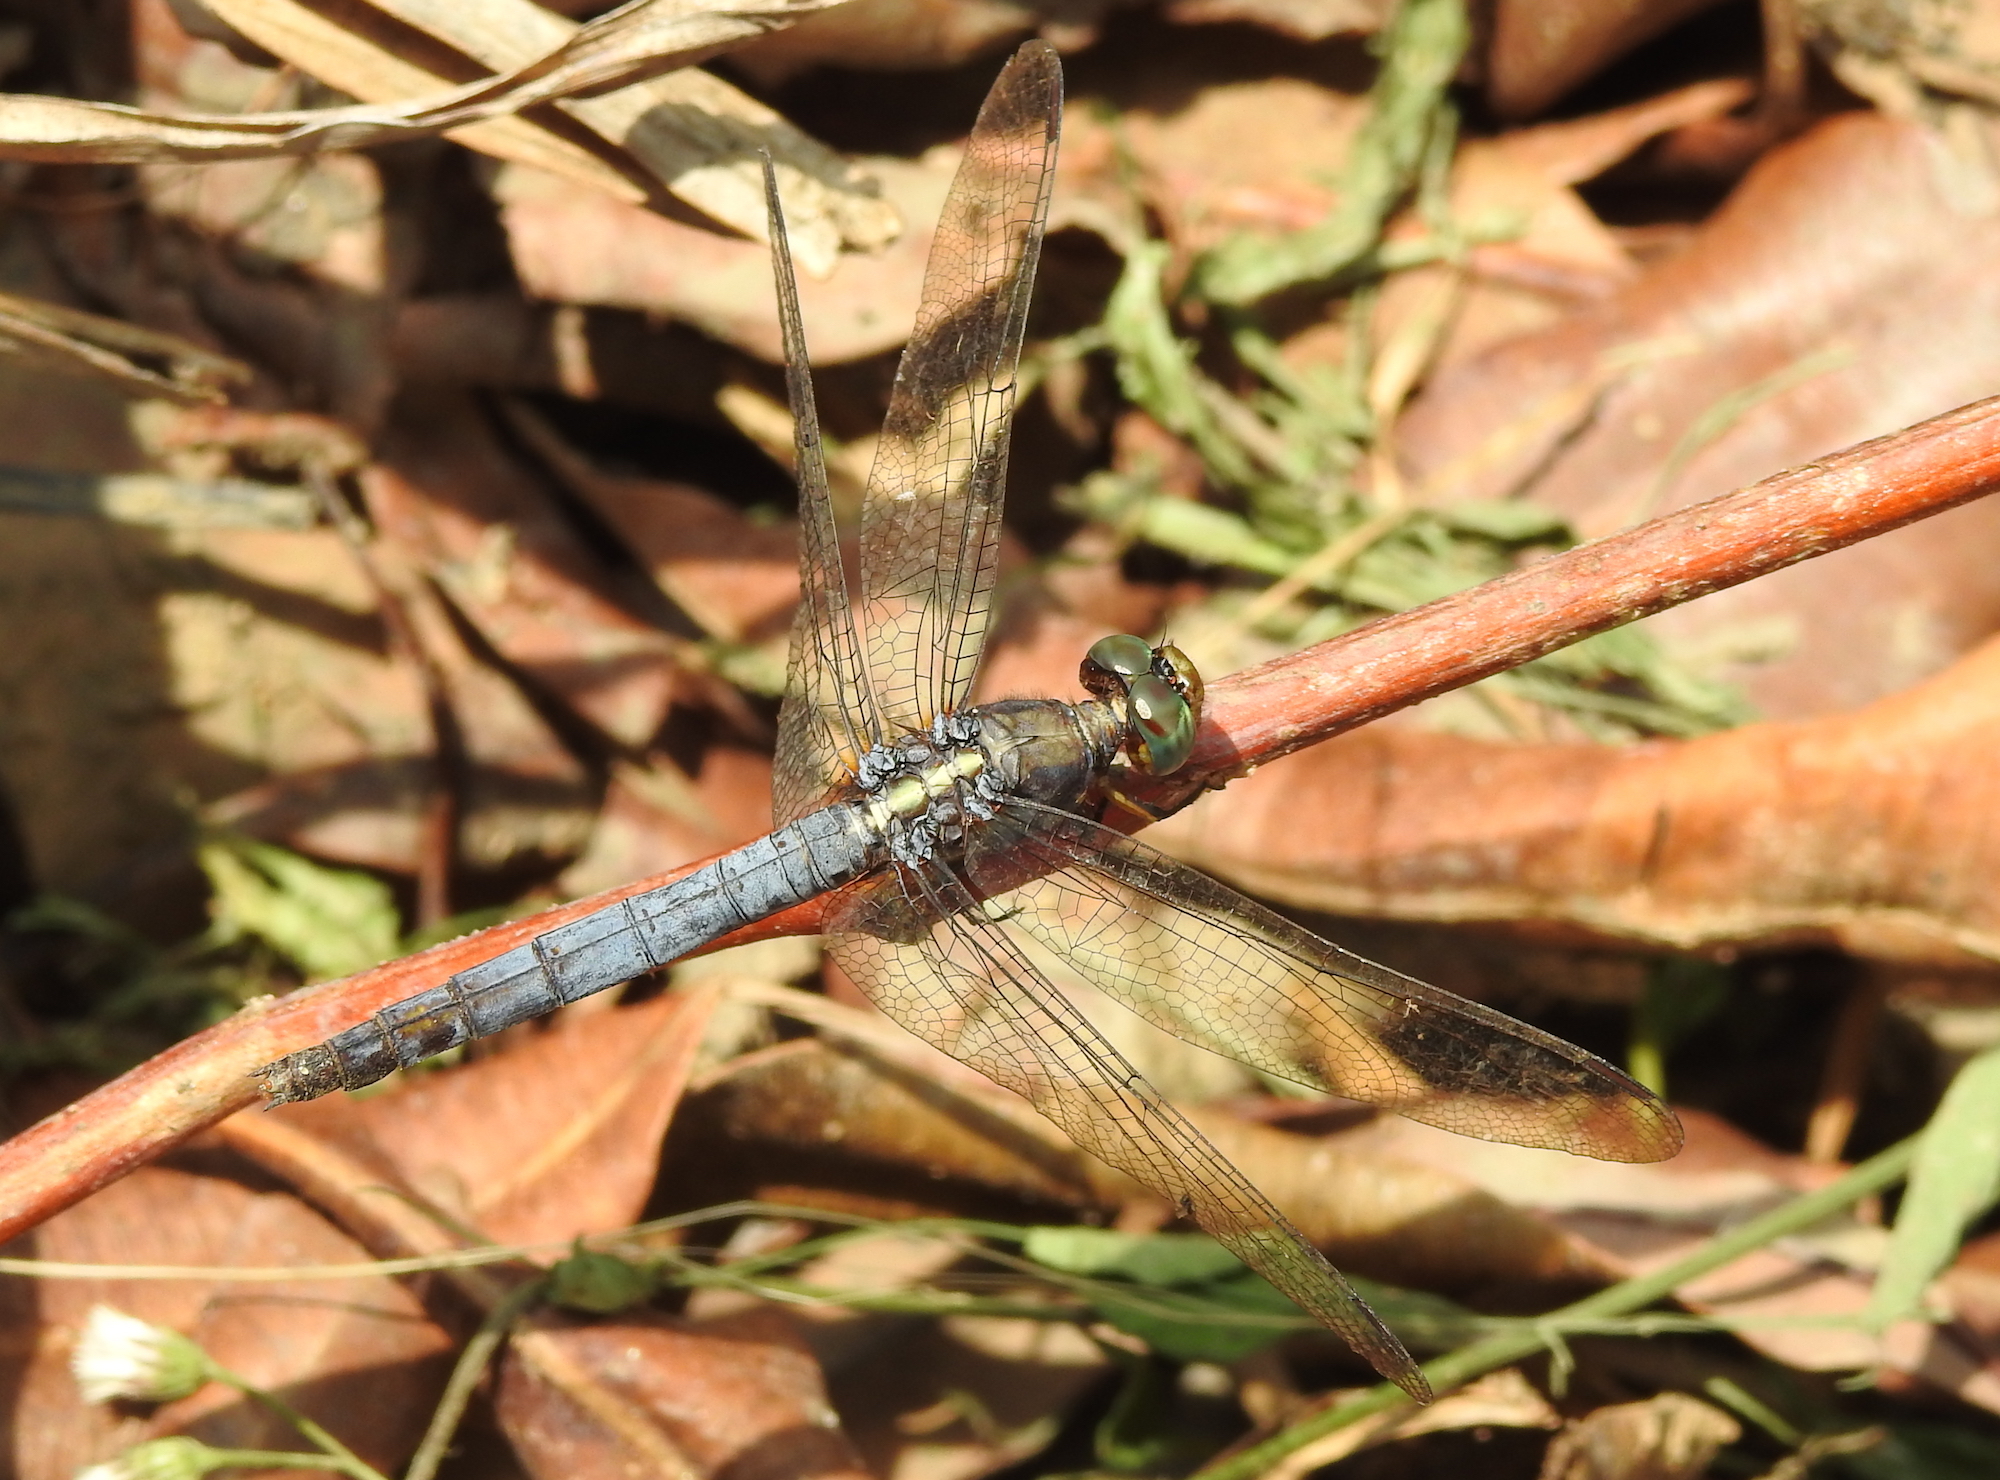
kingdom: Animalia
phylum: Arthropoda
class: Insecta
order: Odonata
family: Libellulidae
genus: Orthetrum
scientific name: Orthetrum glaucum
